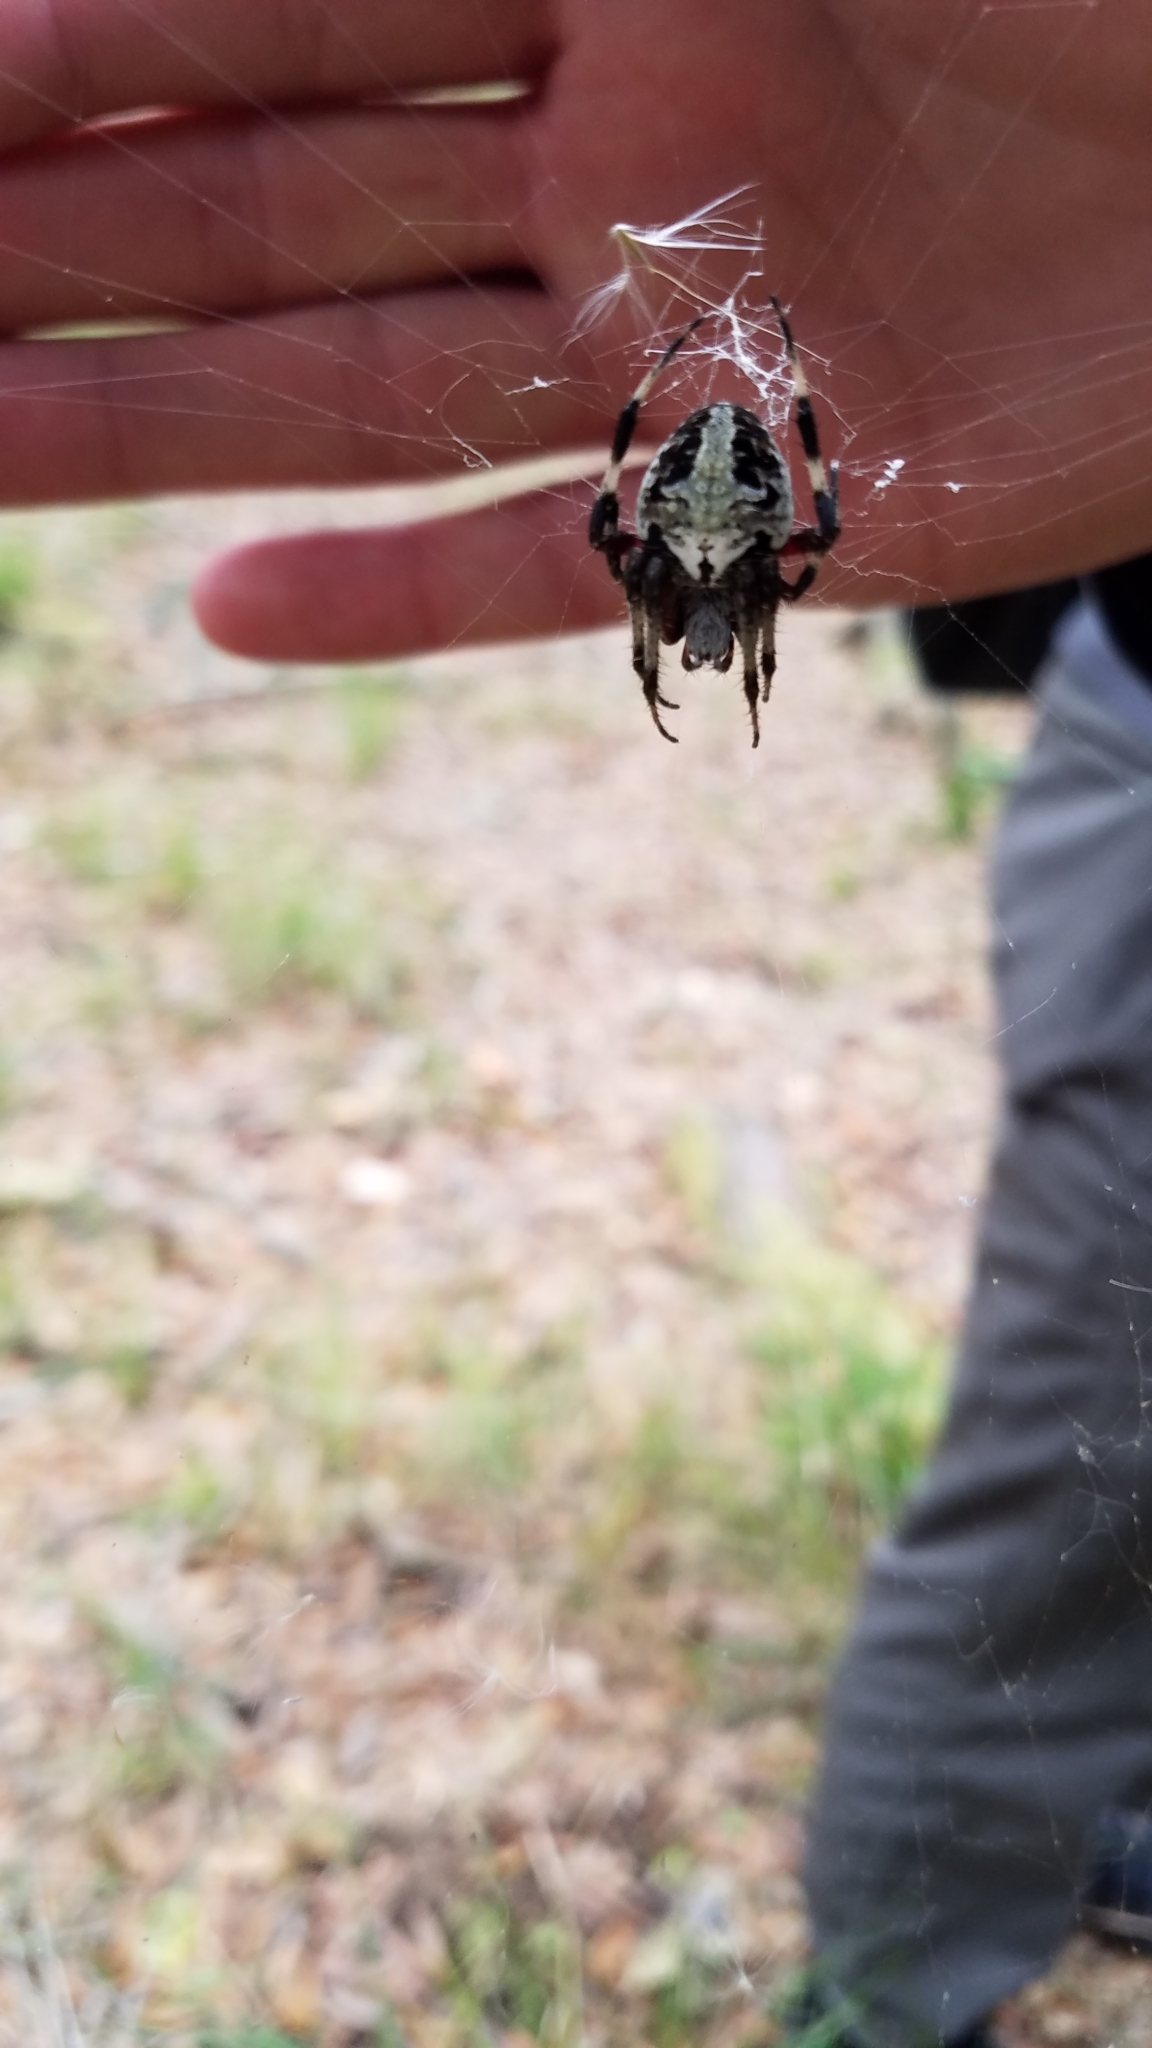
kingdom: Animalia
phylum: Arthropoda
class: Arachnida
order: Araneae
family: Araneidae
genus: Neoscona
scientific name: Neoscona domiciliorum
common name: Red-femured spotted orbweaver
